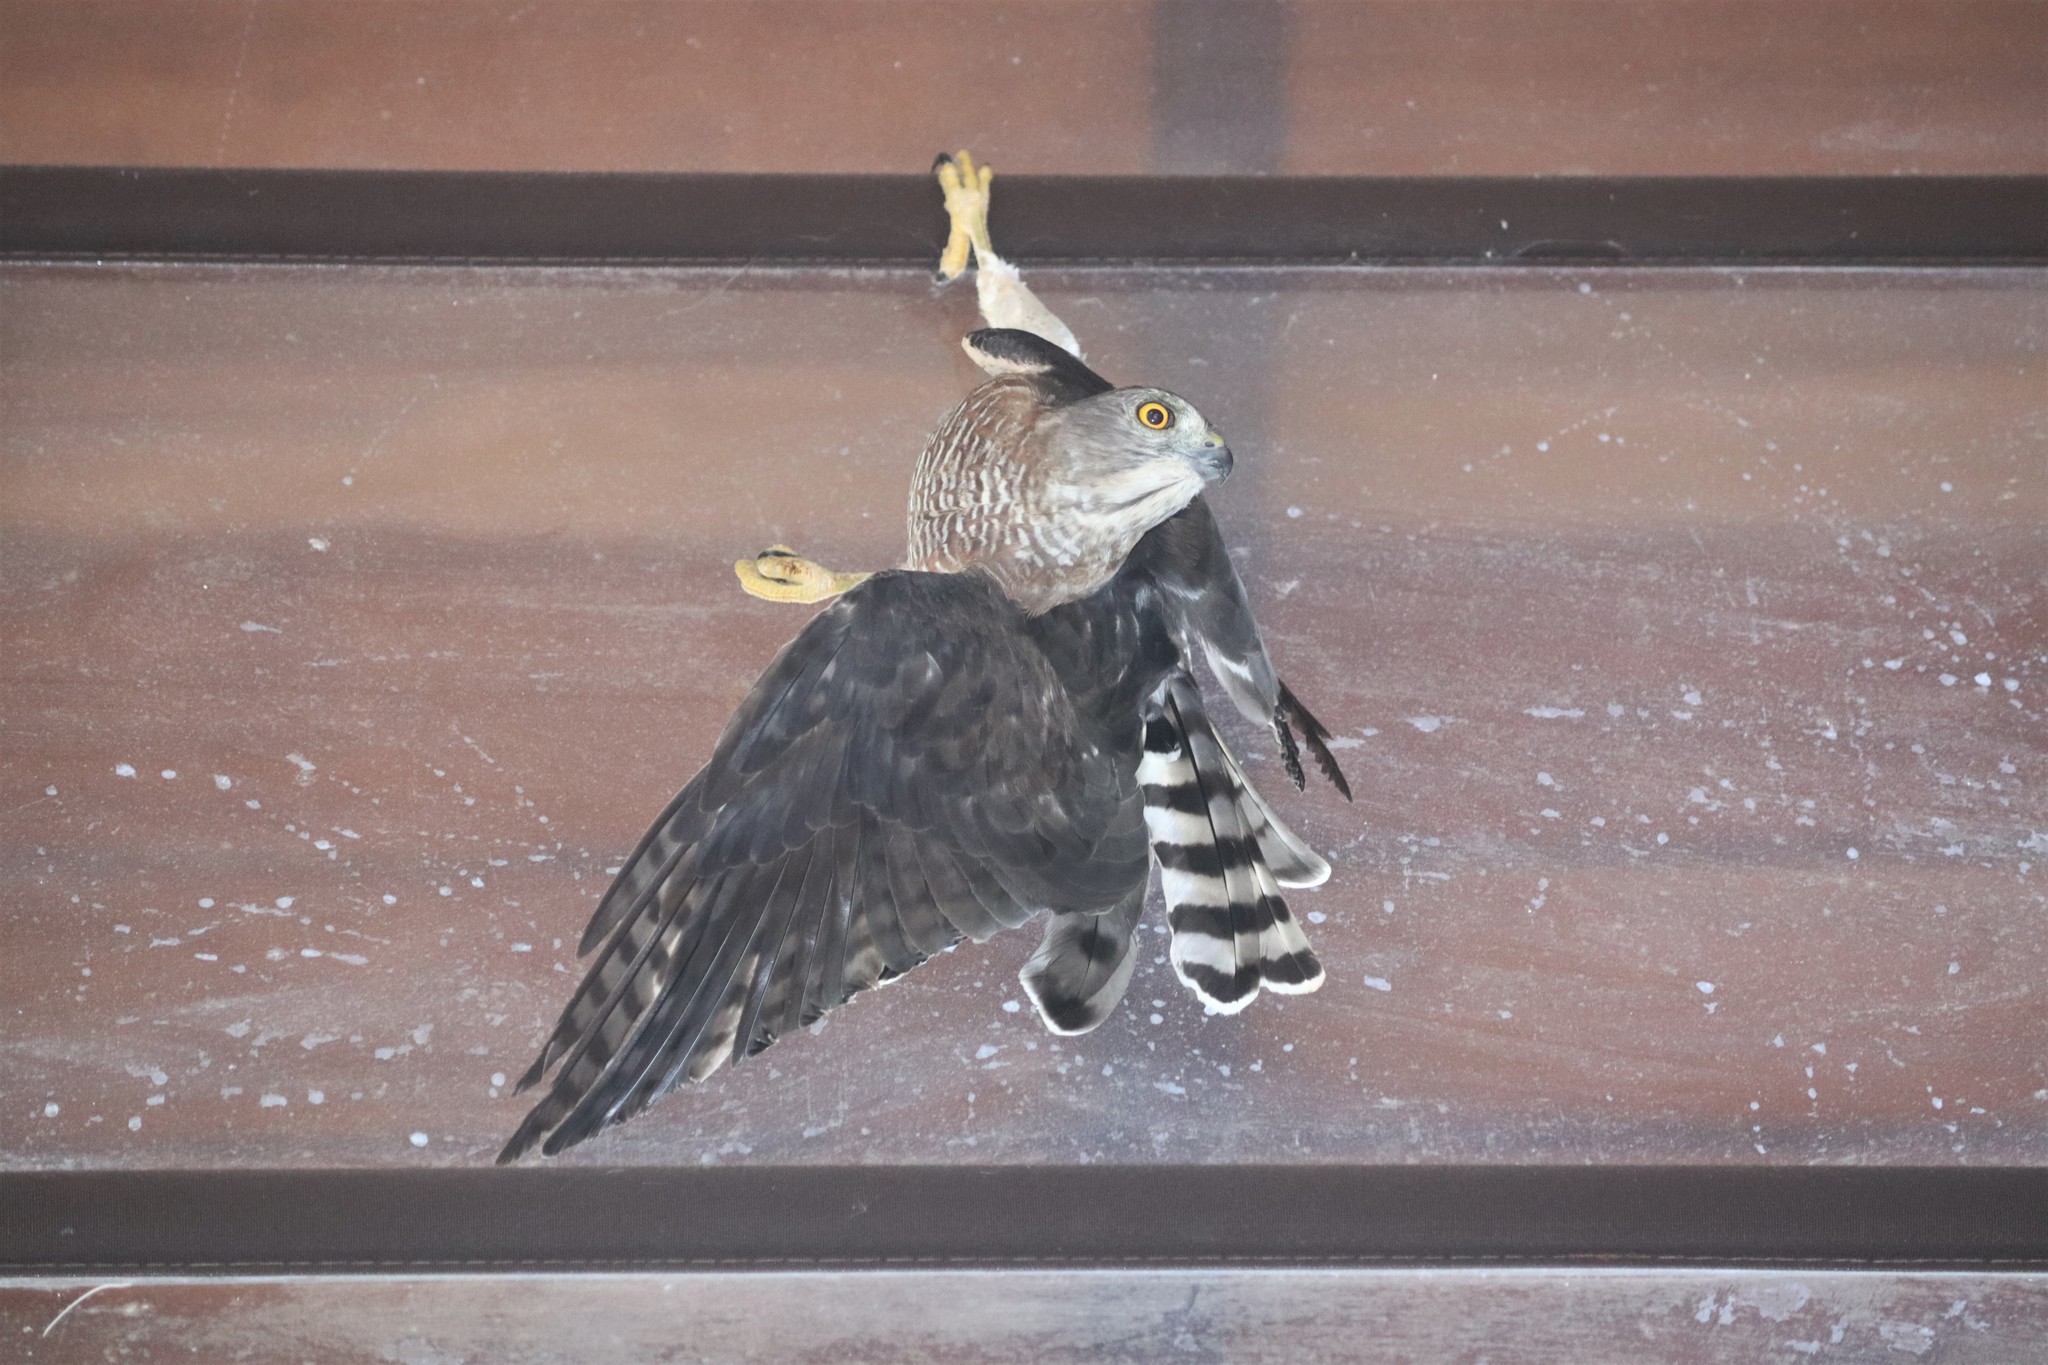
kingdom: Animalia
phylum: Chordata
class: Aves
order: Accipitriformes
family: Accipitridae
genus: Accipiter
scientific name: Accipiter badius
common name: Shikra
